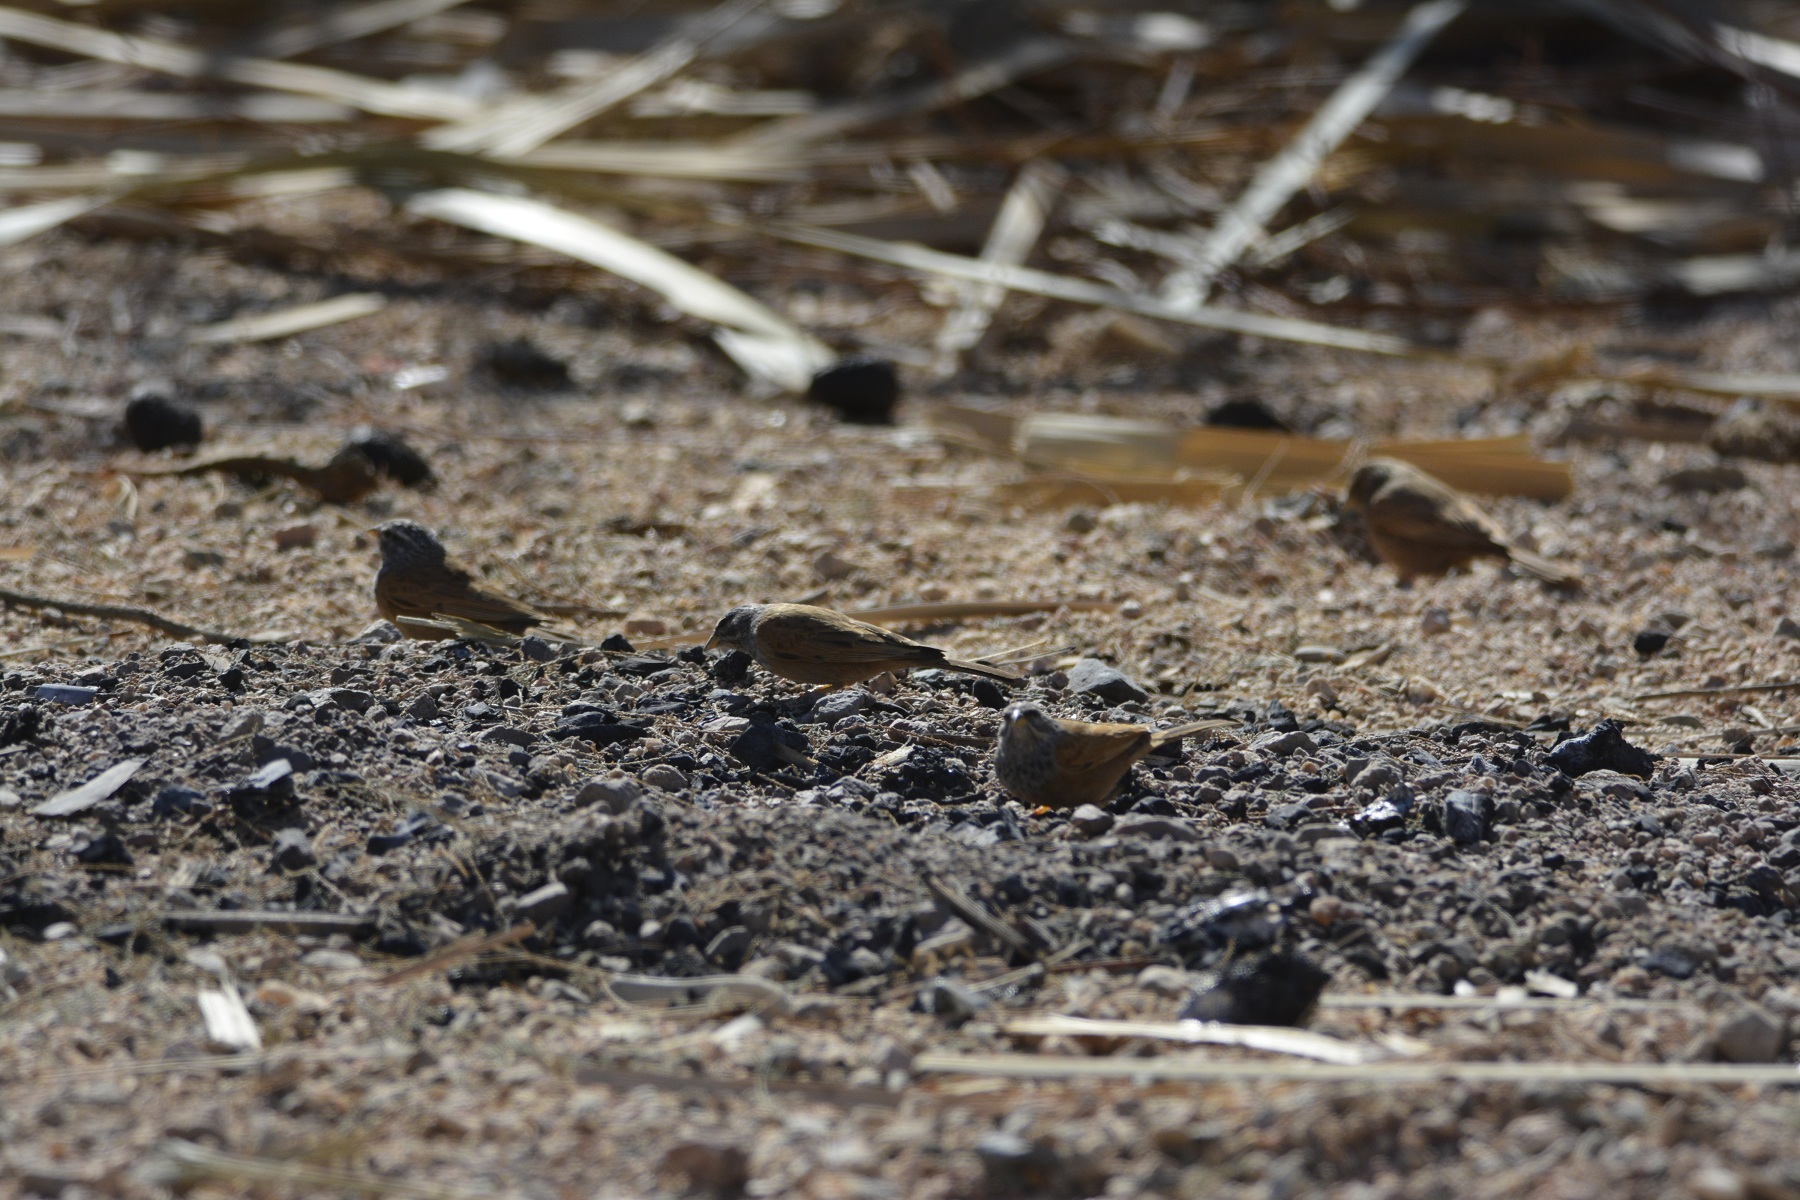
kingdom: Animalia
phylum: Chordata
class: Aves
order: Passeriformes
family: Emberizidae
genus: Emberiza
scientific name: Emberiza sahari
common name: House bunting
